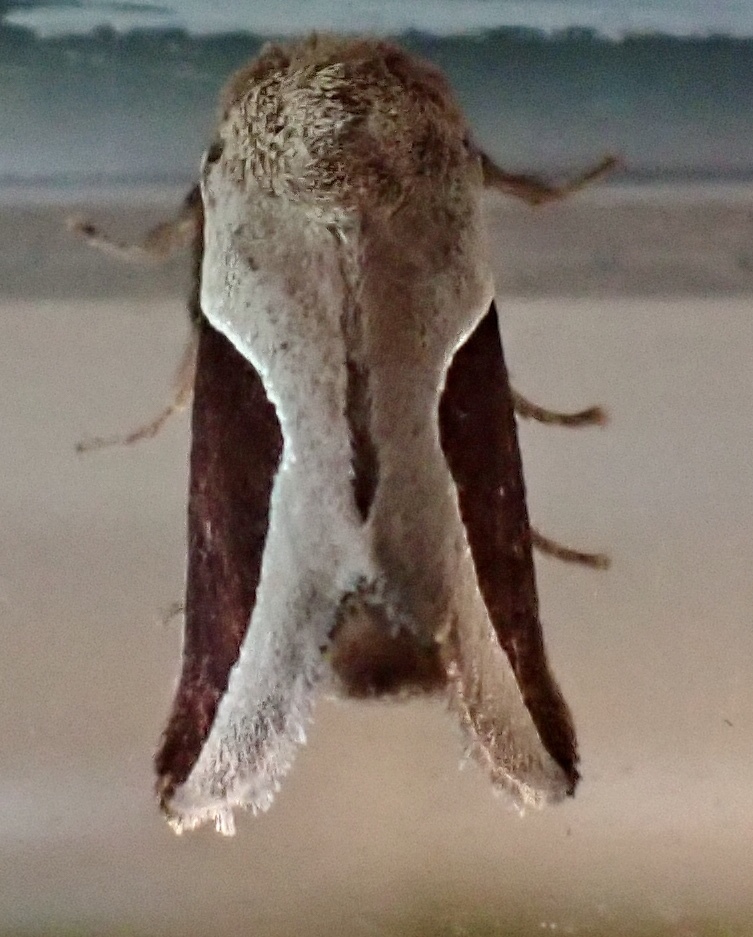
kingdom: Animalia
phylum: Arthropoda
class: Insecta
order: Lepidoptera
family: Limacodidae
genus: Prolimacodes
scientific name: Prolimacodes badia
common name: Skiff moth
